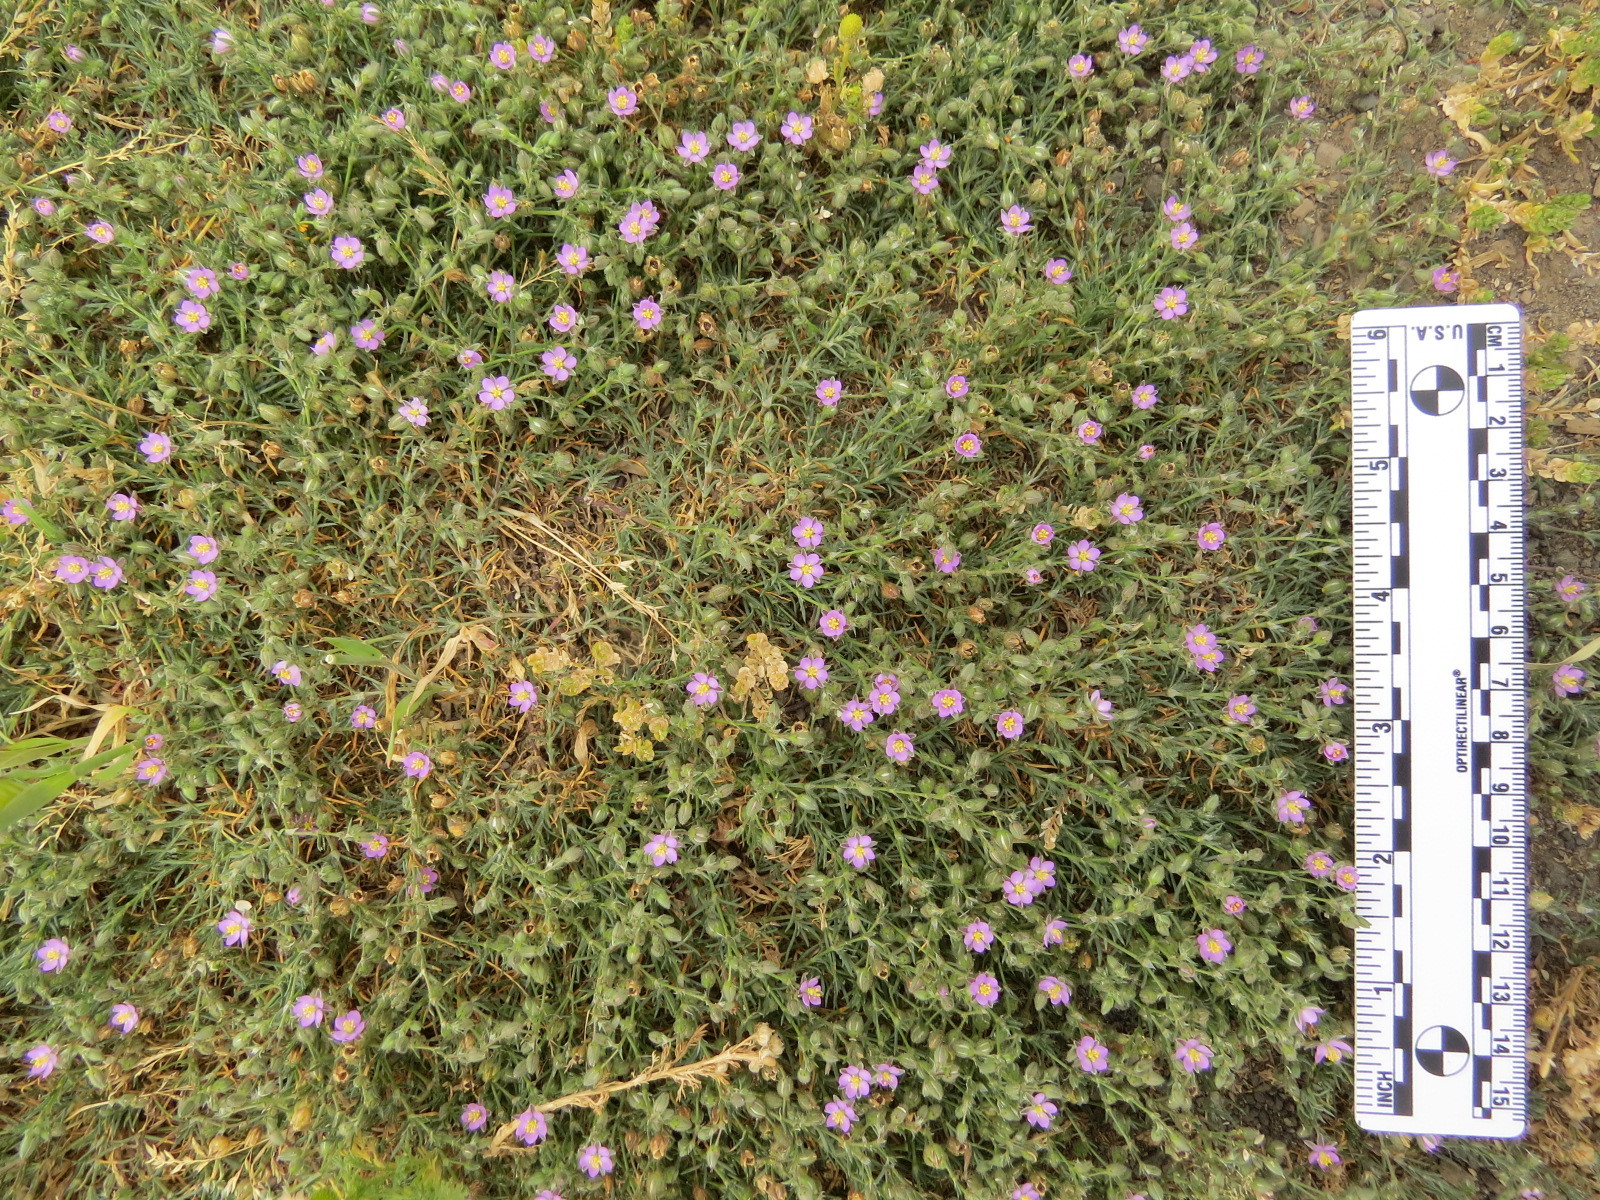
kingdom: Plantae
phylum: Tracheophyta
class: Magnoliopsida
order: Caryophyllales
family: Caryophyllaceae
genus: Spergularia
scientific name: Spergularia rubra
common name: Red sand-spurrey
